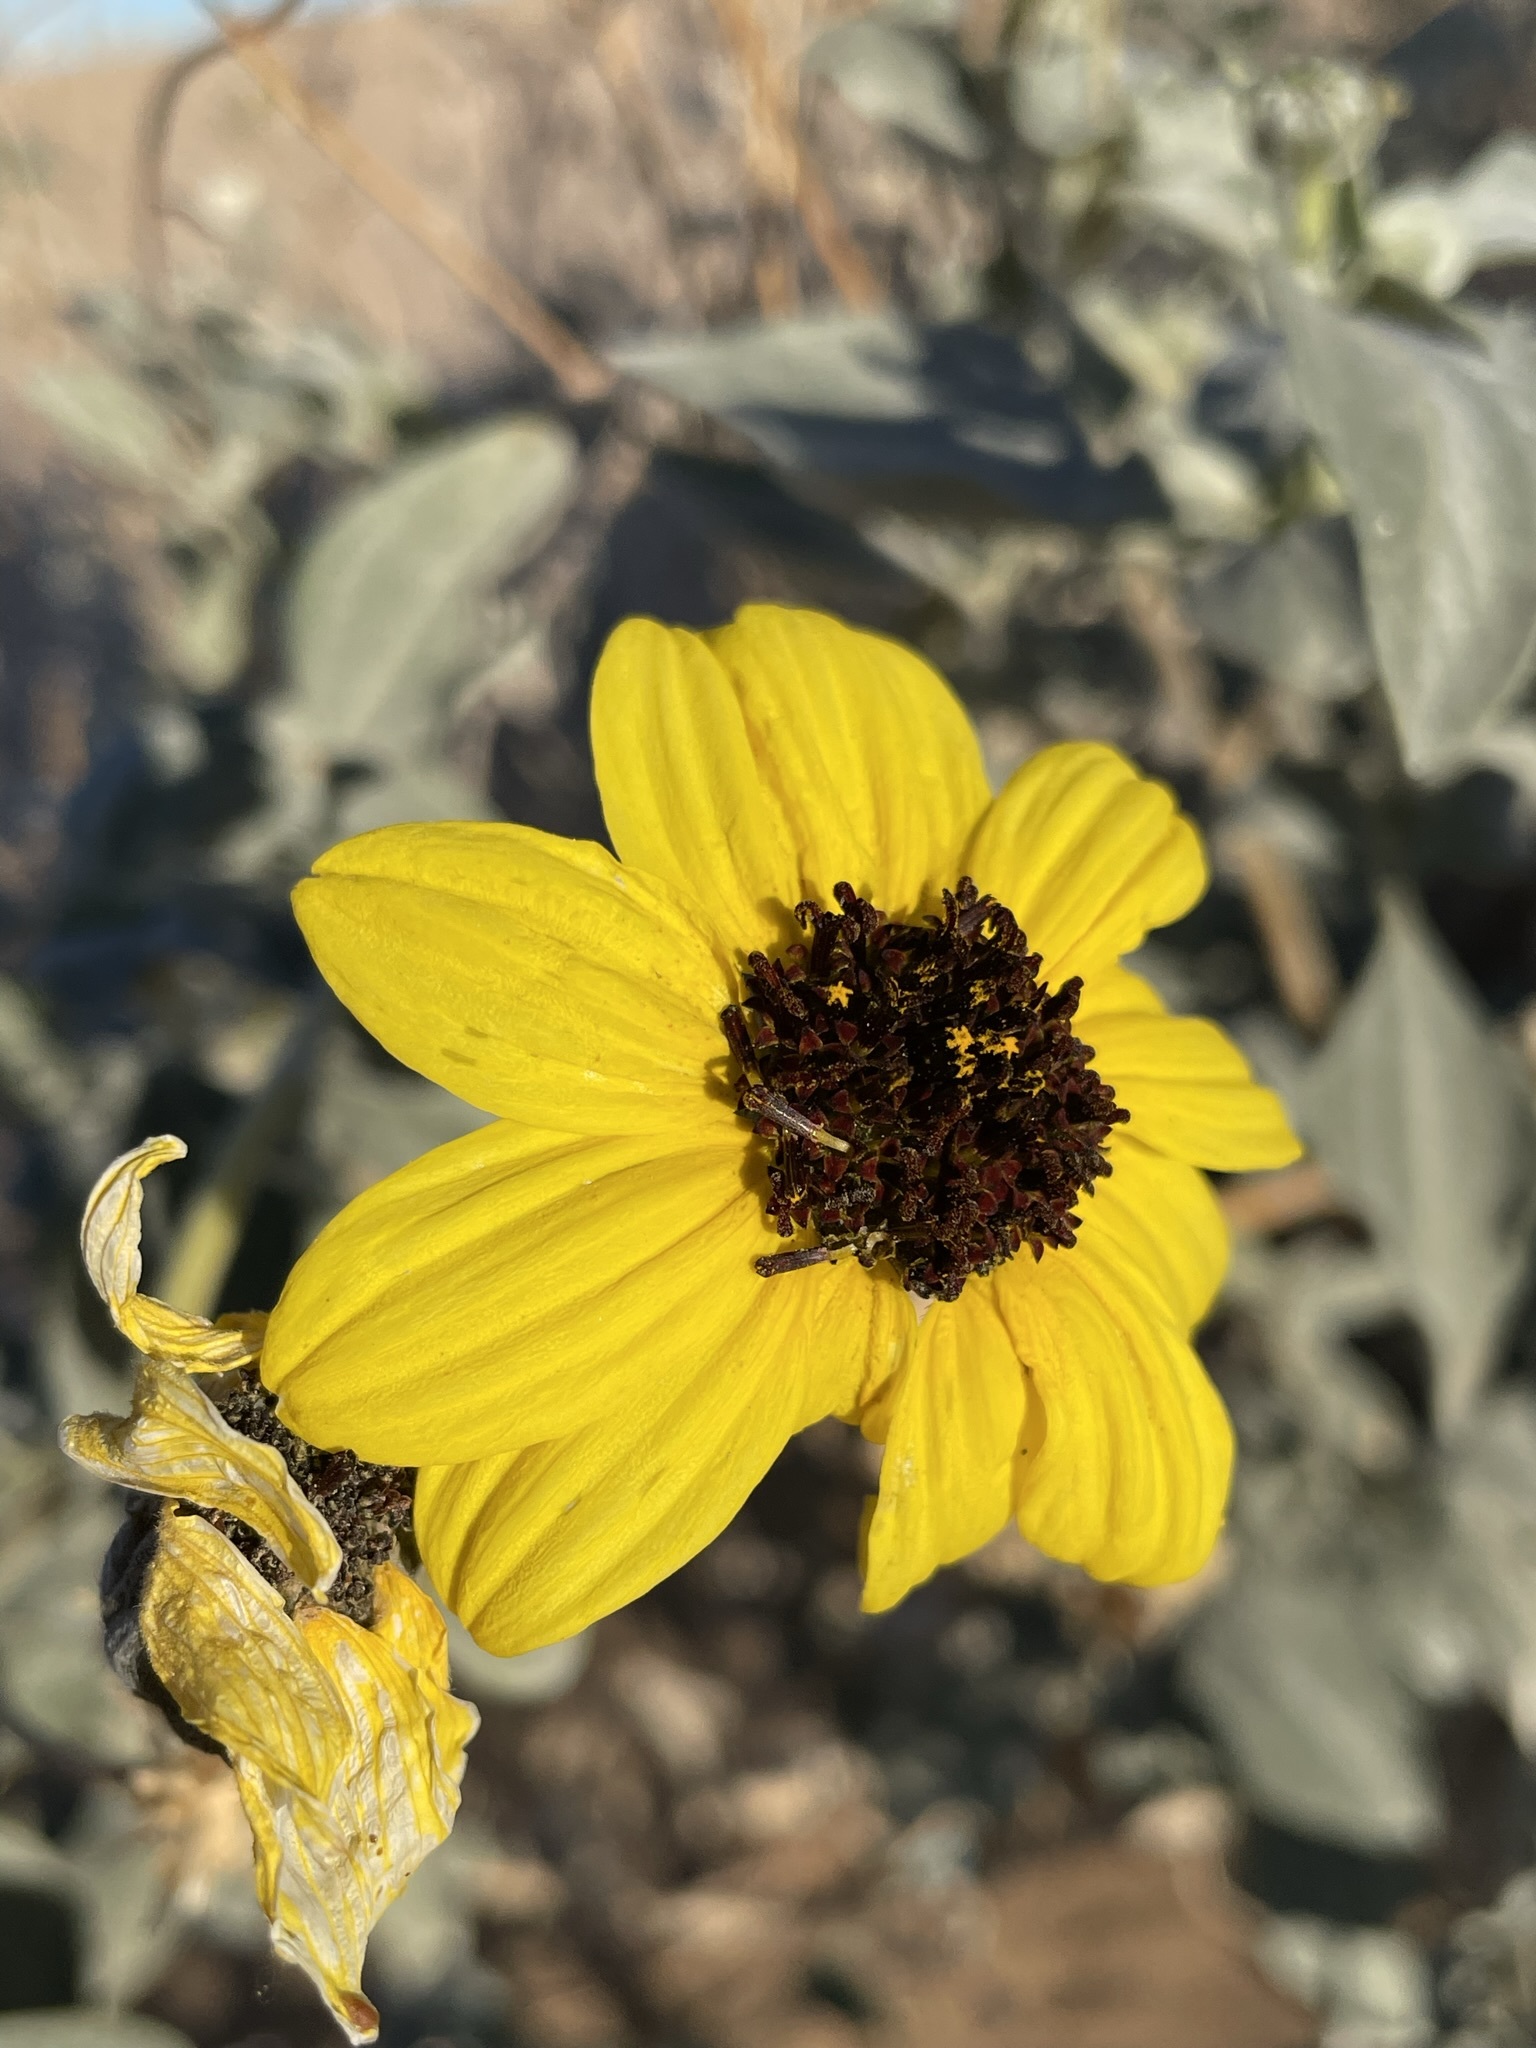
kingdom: Plantae
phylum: Tracheophyta
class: Magnoliopsida
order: Asterales
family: Asteraceae
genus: Helianthus
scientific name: Helianthus niveus
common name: Snowy sunflower
